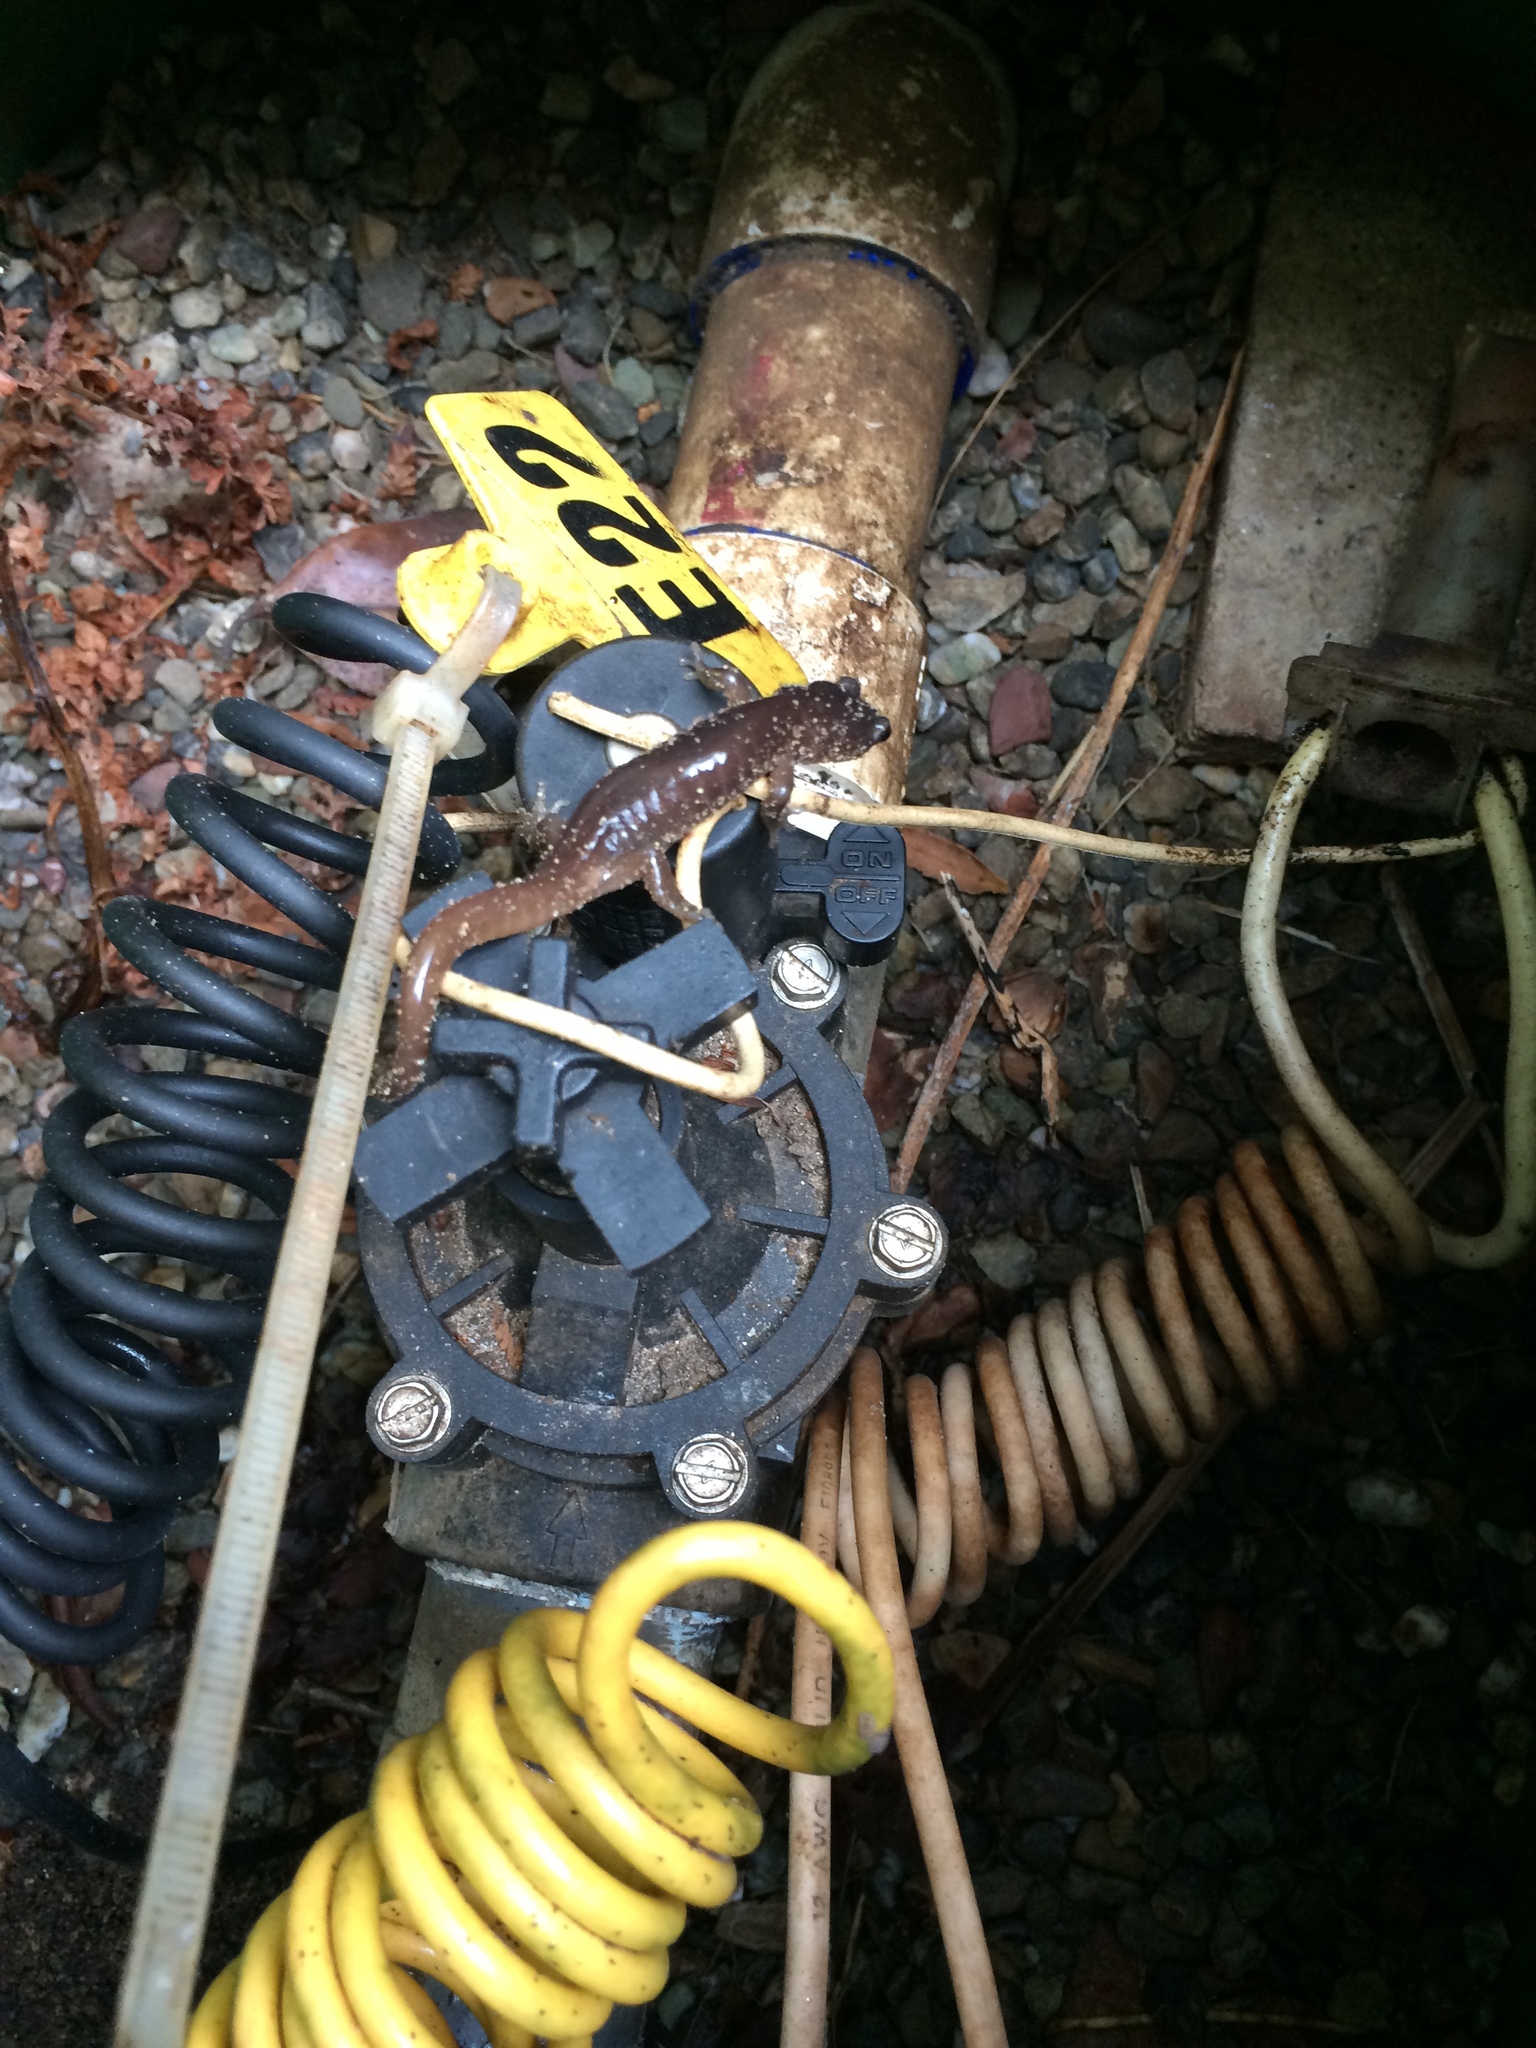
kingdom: Animalia
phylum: Chordata
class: Amphibia
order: Caudata
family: Plethodontidae
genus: Aneides
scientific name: Aneides lugubris
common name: Arboreal salamander
